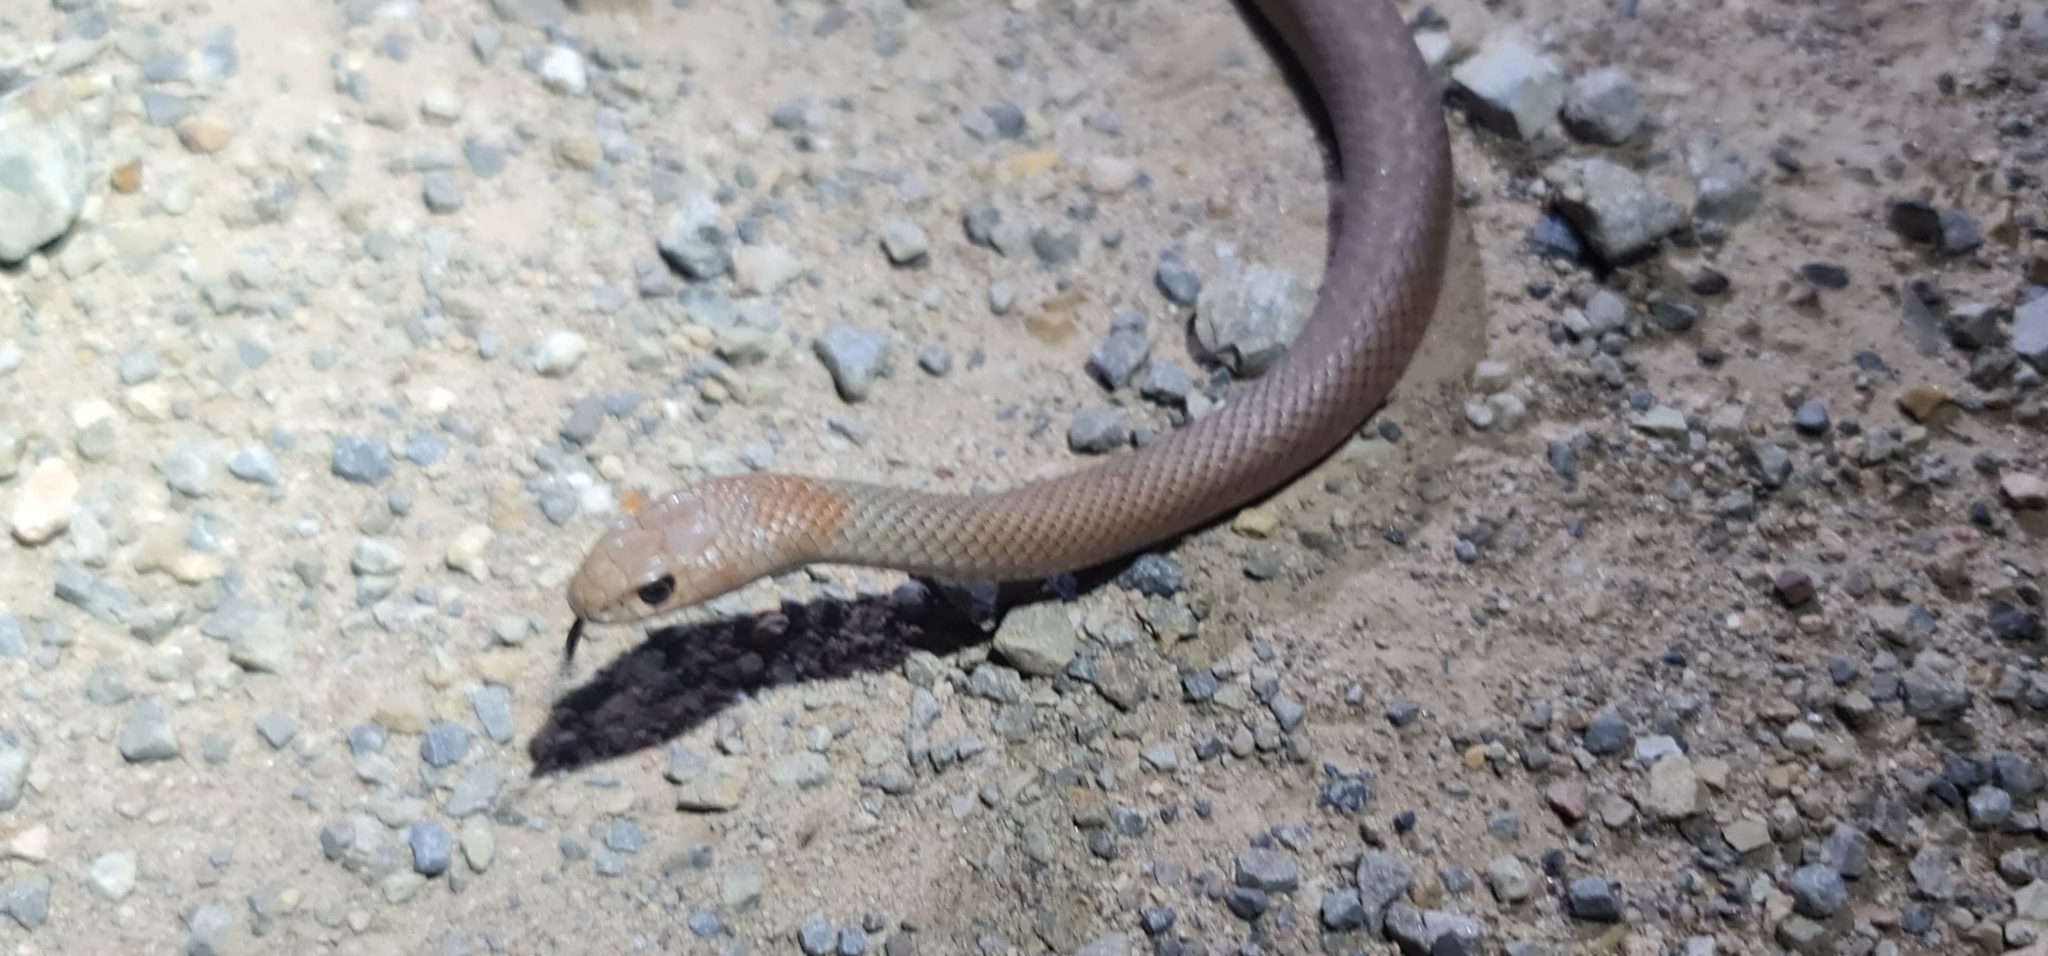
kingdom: Animalia
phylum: Chordata
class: Squamata
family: Elapidae
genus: Pseudonaja
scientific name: Pseudonaja textilis
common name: Eastern brown snake
